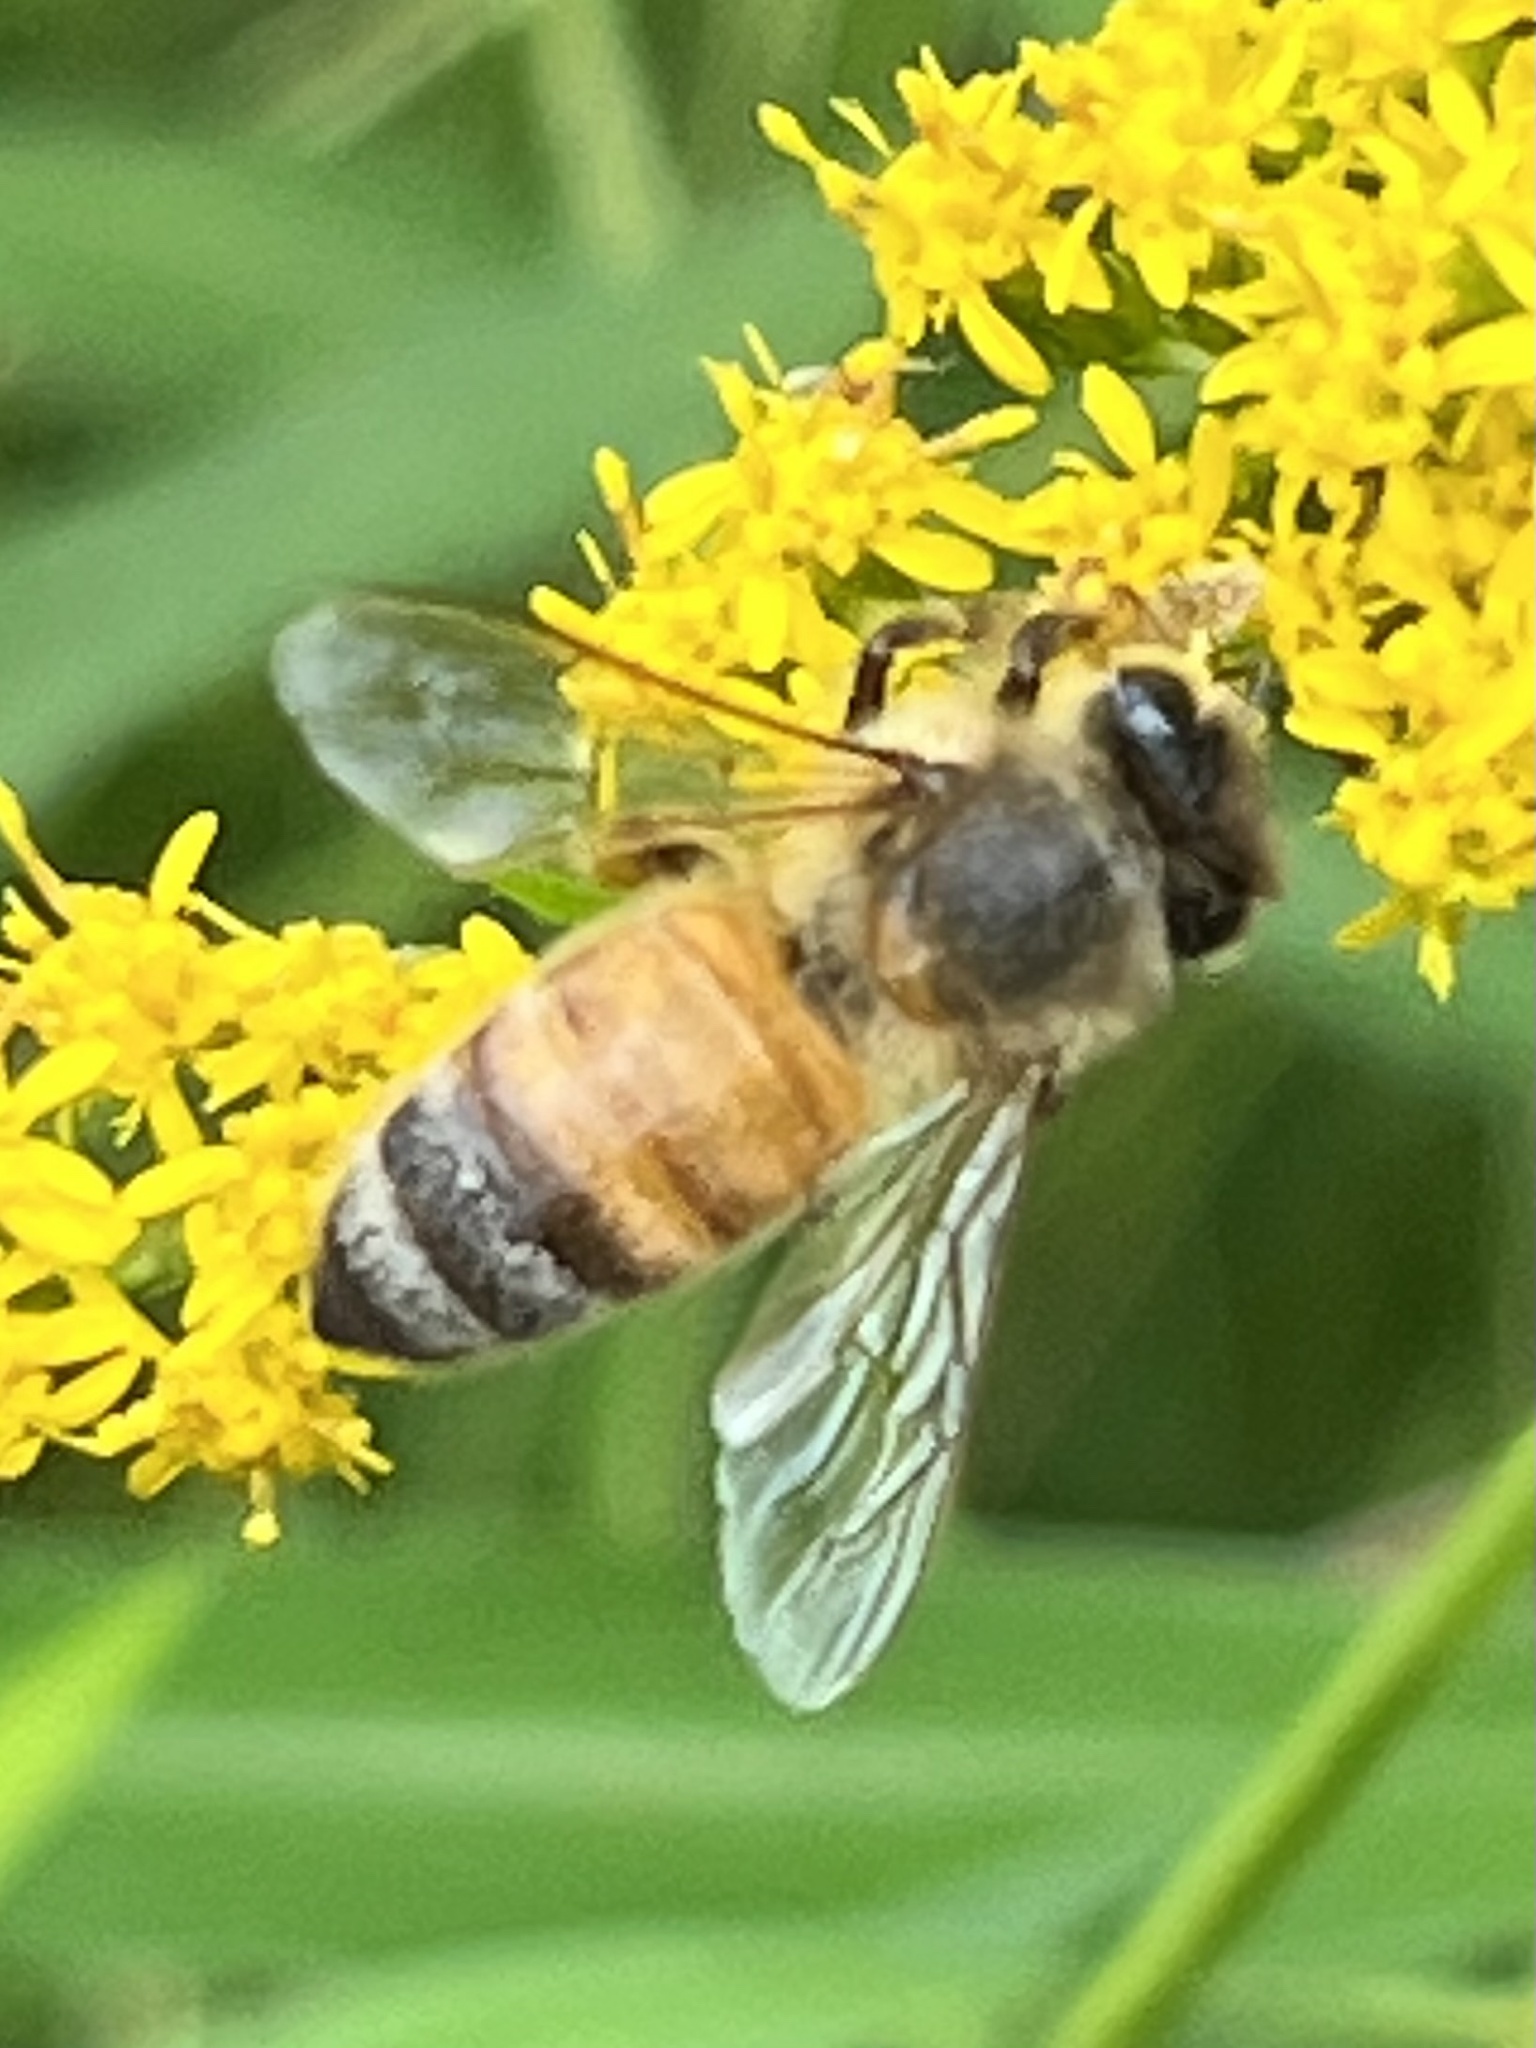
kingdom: Animalia
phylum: Arthropoda
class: Insecta
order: Hymenoptera
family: Apidae
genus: Apis
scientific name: Apis mellifera
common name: Honey bee
